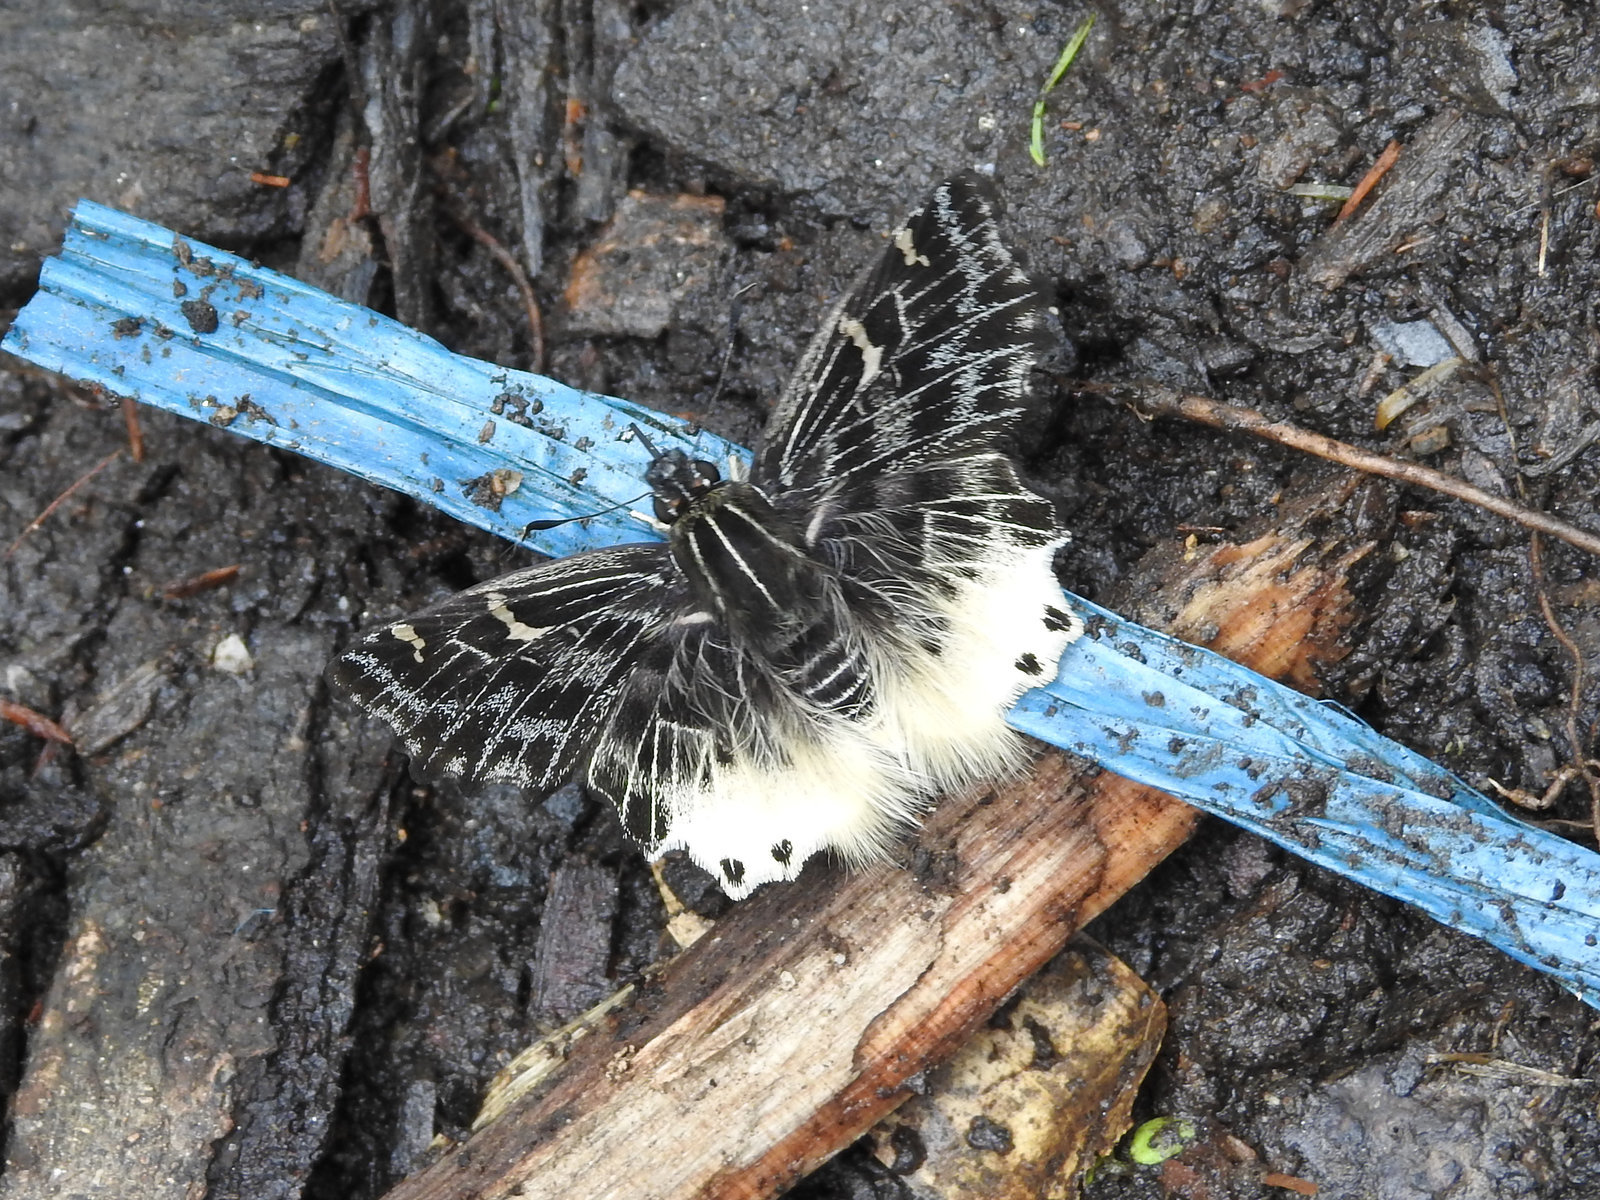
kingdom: Animalia
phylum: Arthropoda
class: Insecta
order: Lepidoptera
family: Hesperiidae
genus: Darpa
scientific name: Darpa hanria
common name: Hairy angle
